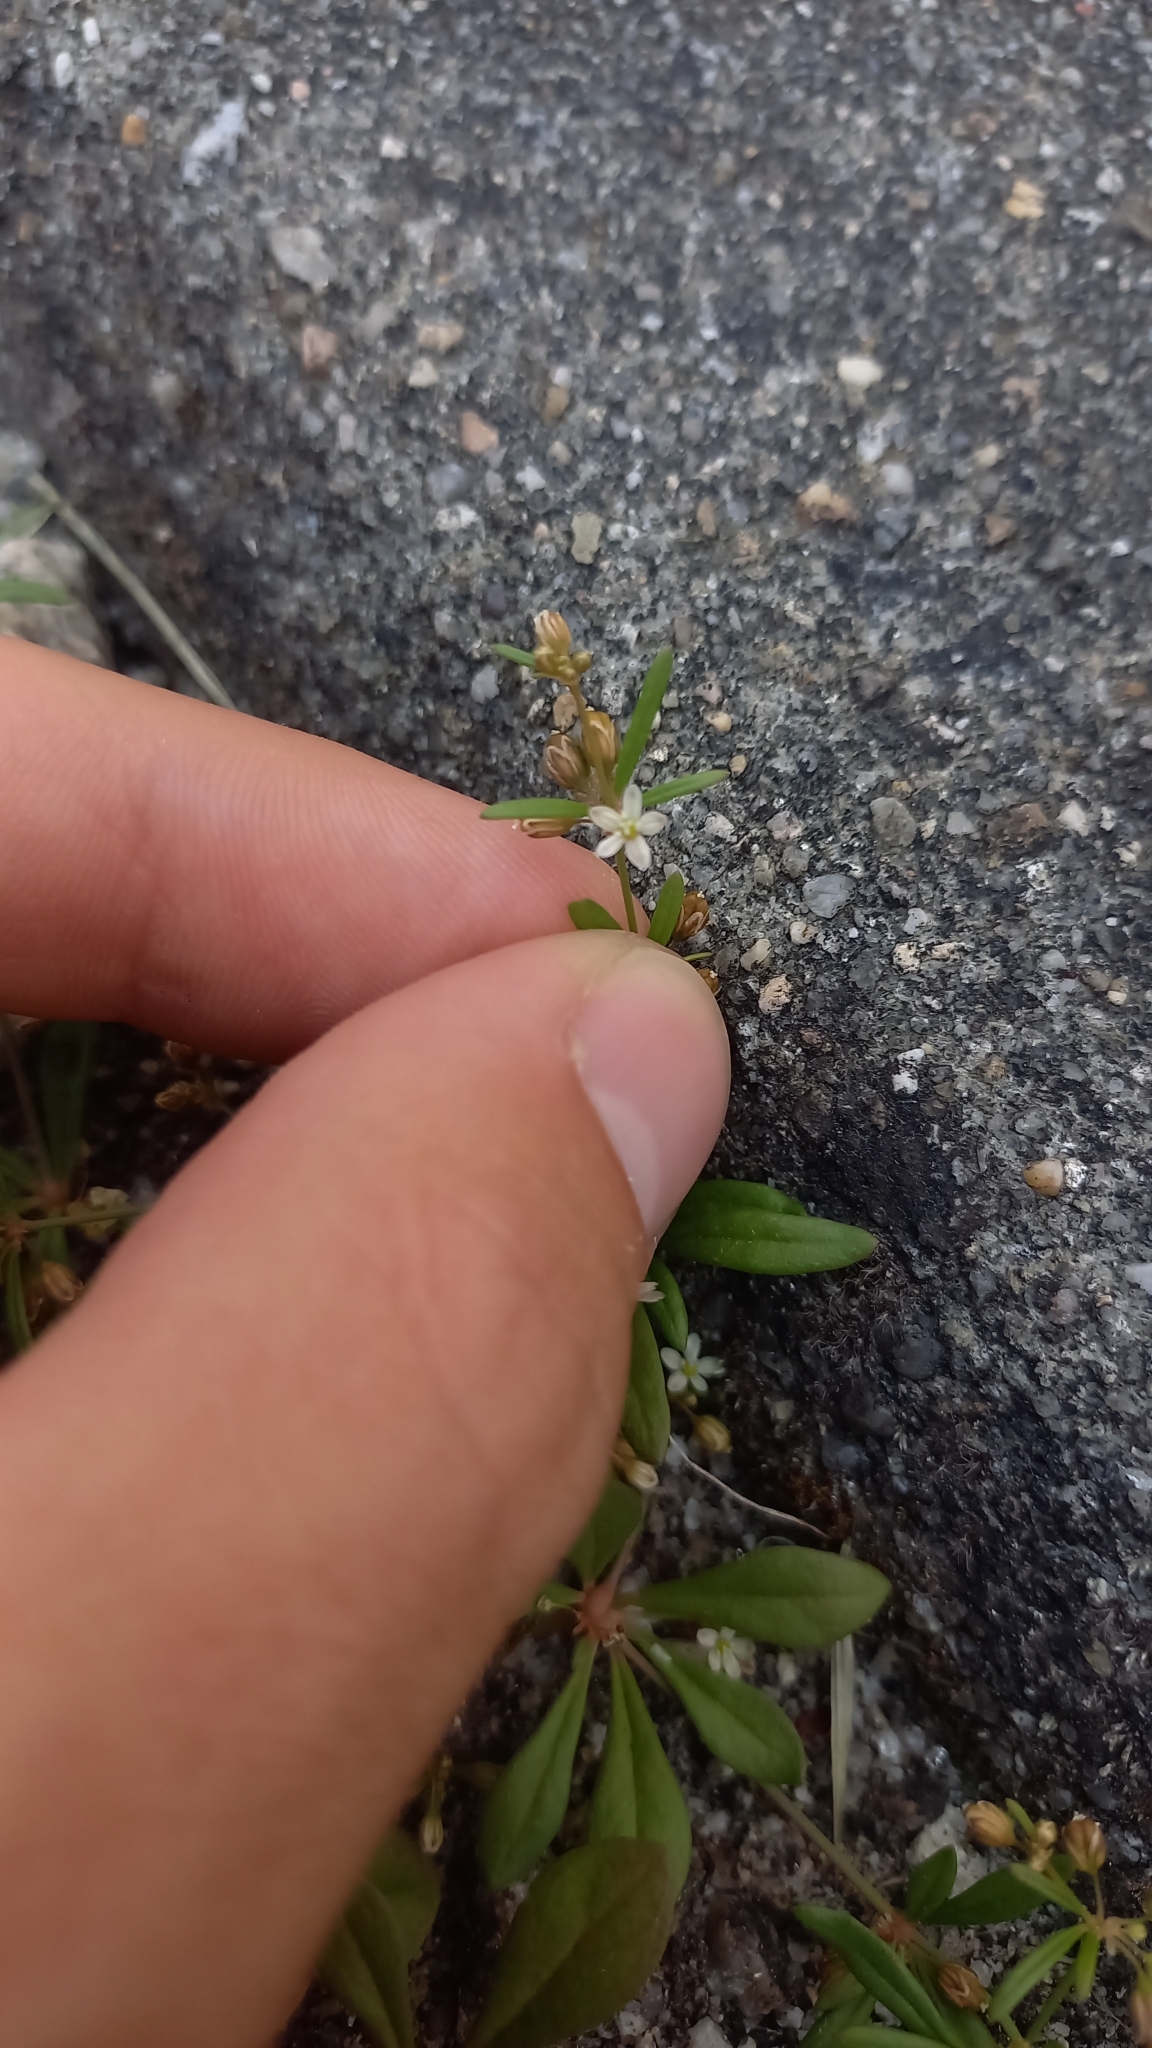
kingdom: Plantae
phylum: Tracheophyta
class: Magnoliopsida
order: Caryophyllales
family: Molluginaceae
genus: Mollugo
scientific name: Mollugo verticillata
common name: Green carpetweed
